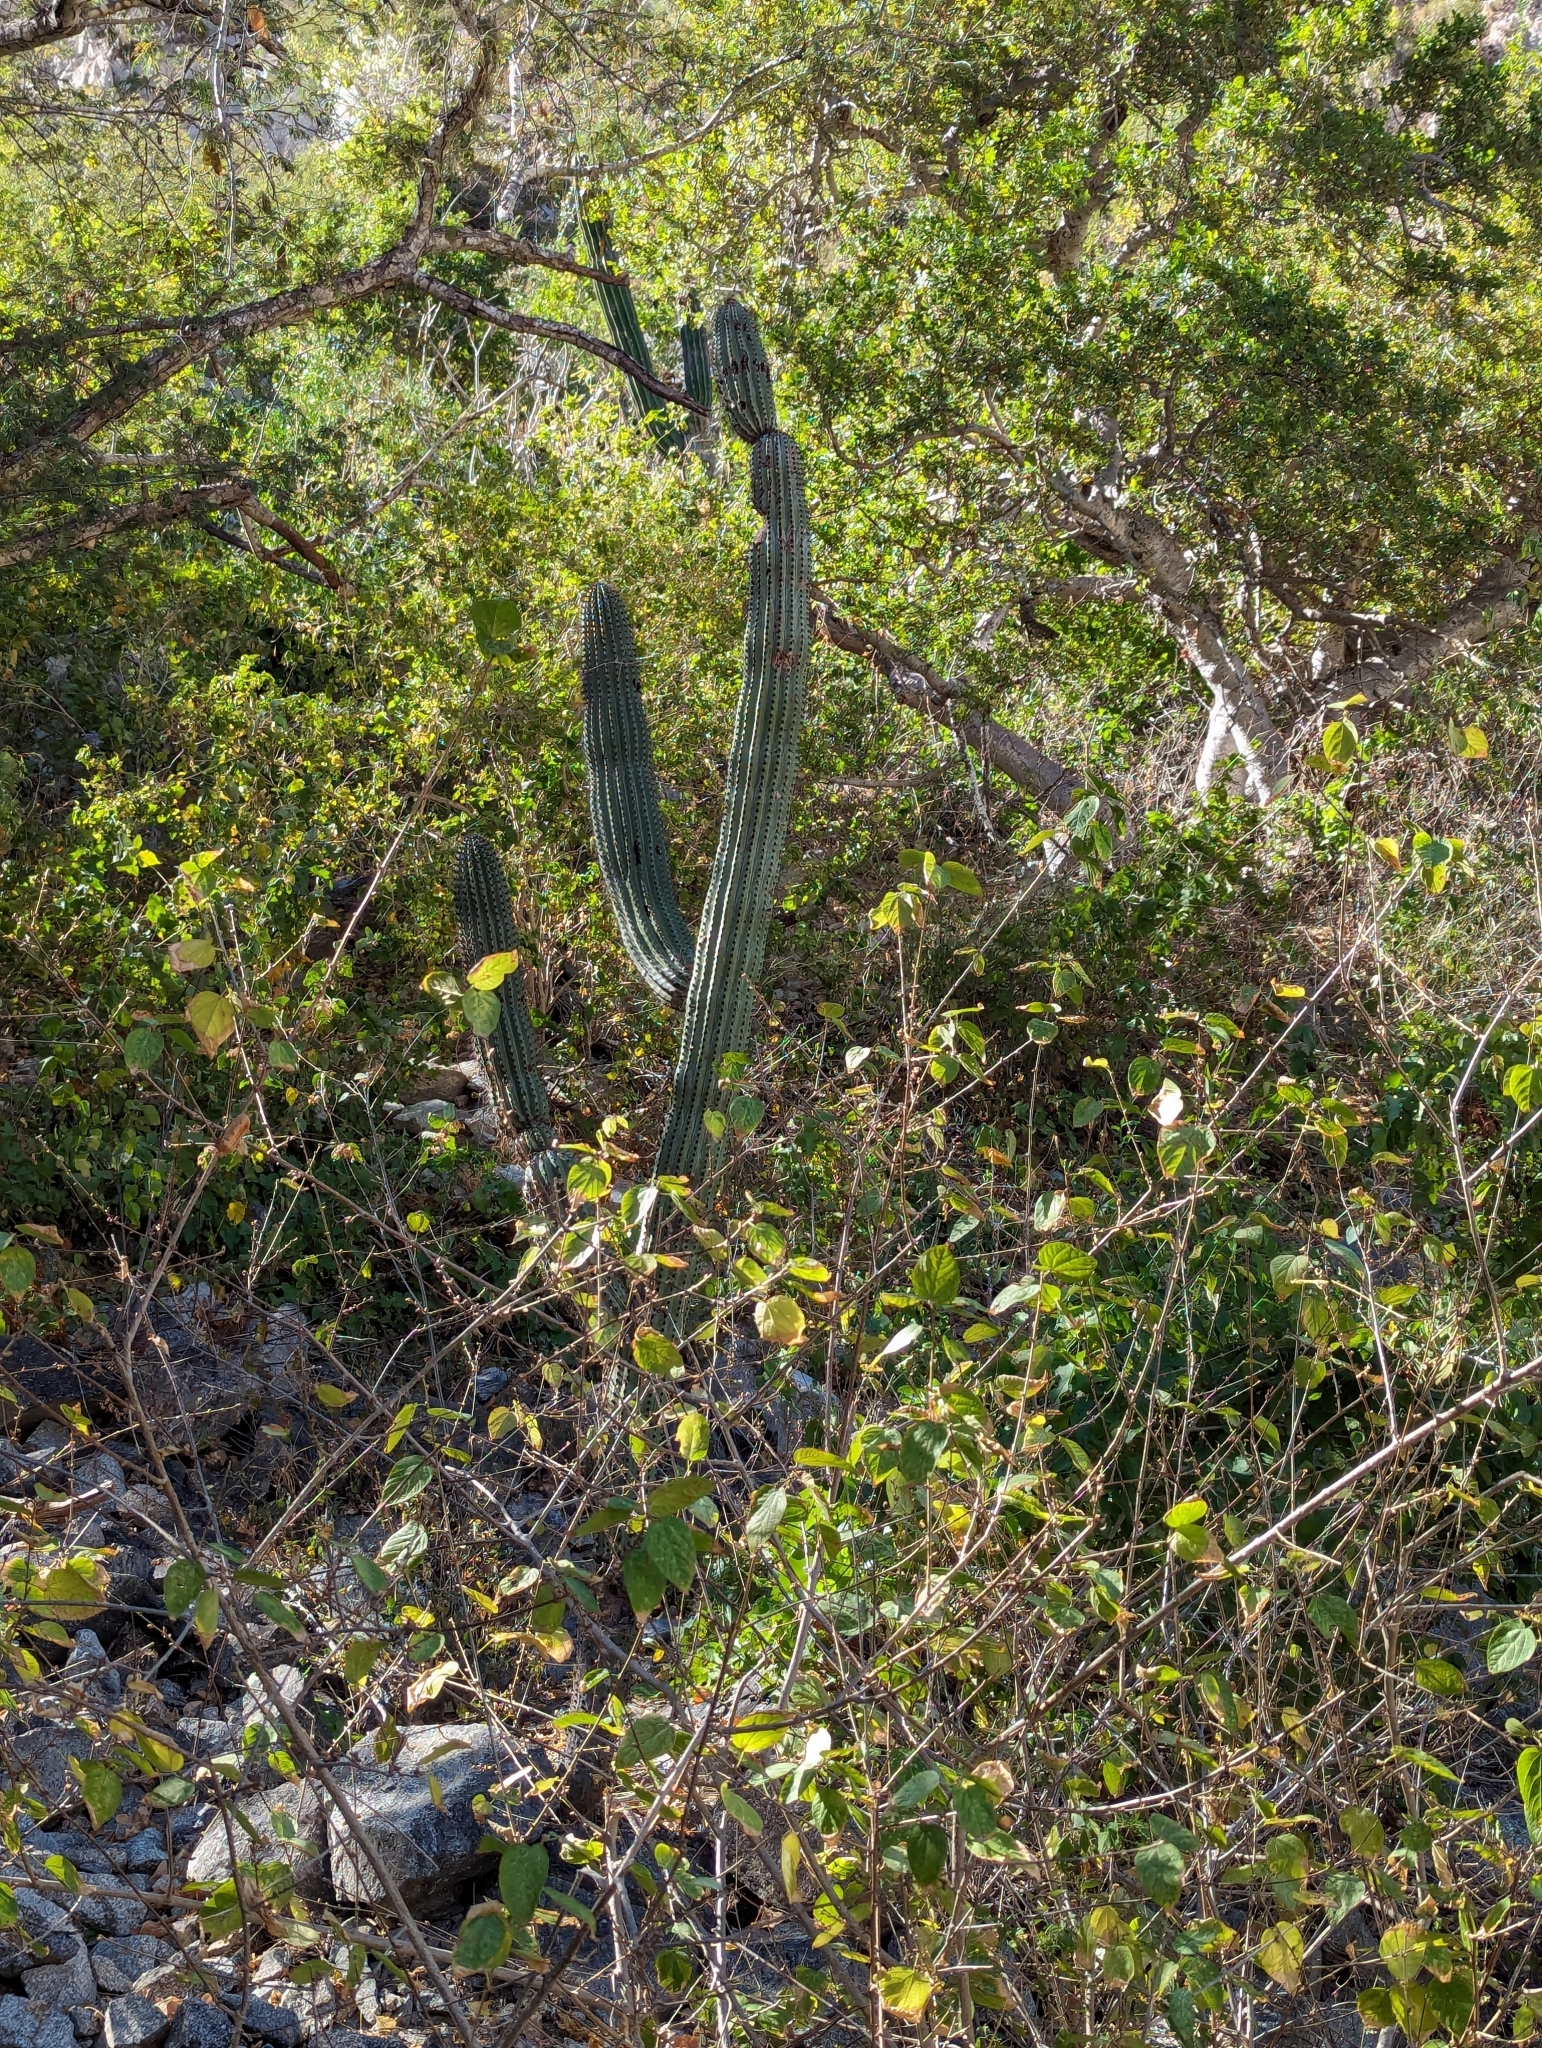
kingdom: Plantae
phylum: Tracheophyta
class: Magnoliopsida
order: Caryophyllales
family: Cactaceae
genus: Stenocereus
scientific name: Stenocereus thurberi
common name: Organ pipe cactus
